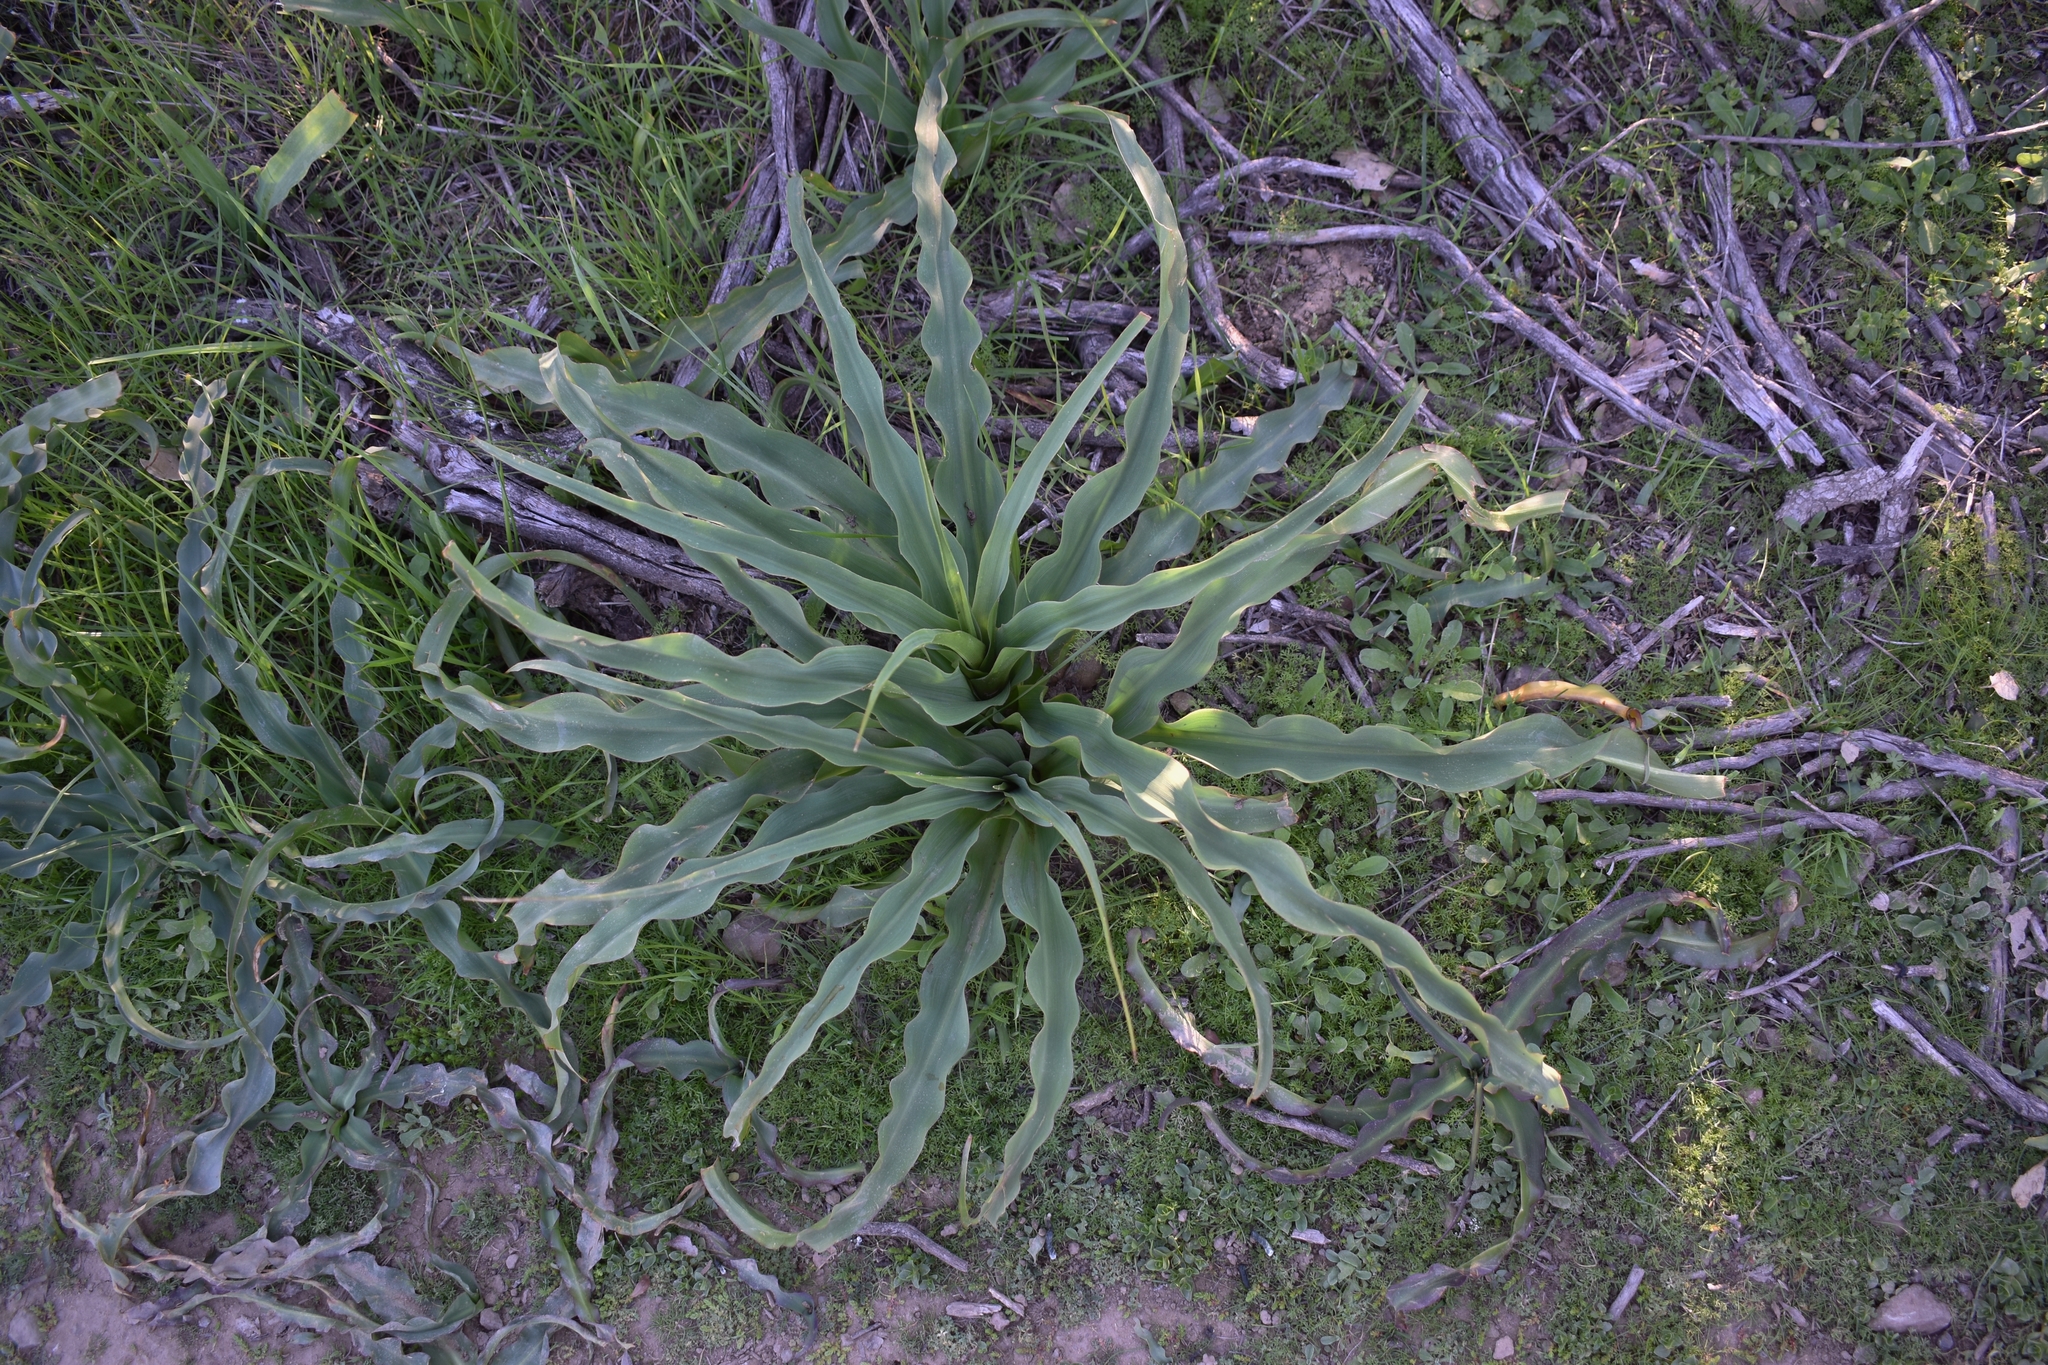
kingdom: Plantae
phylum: Tracheophyta
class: Liliopsida
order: Asparagales
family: Asparagaceae
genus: Chlorogalum
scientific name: Chlorogalum pomeridianum
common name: Amole
